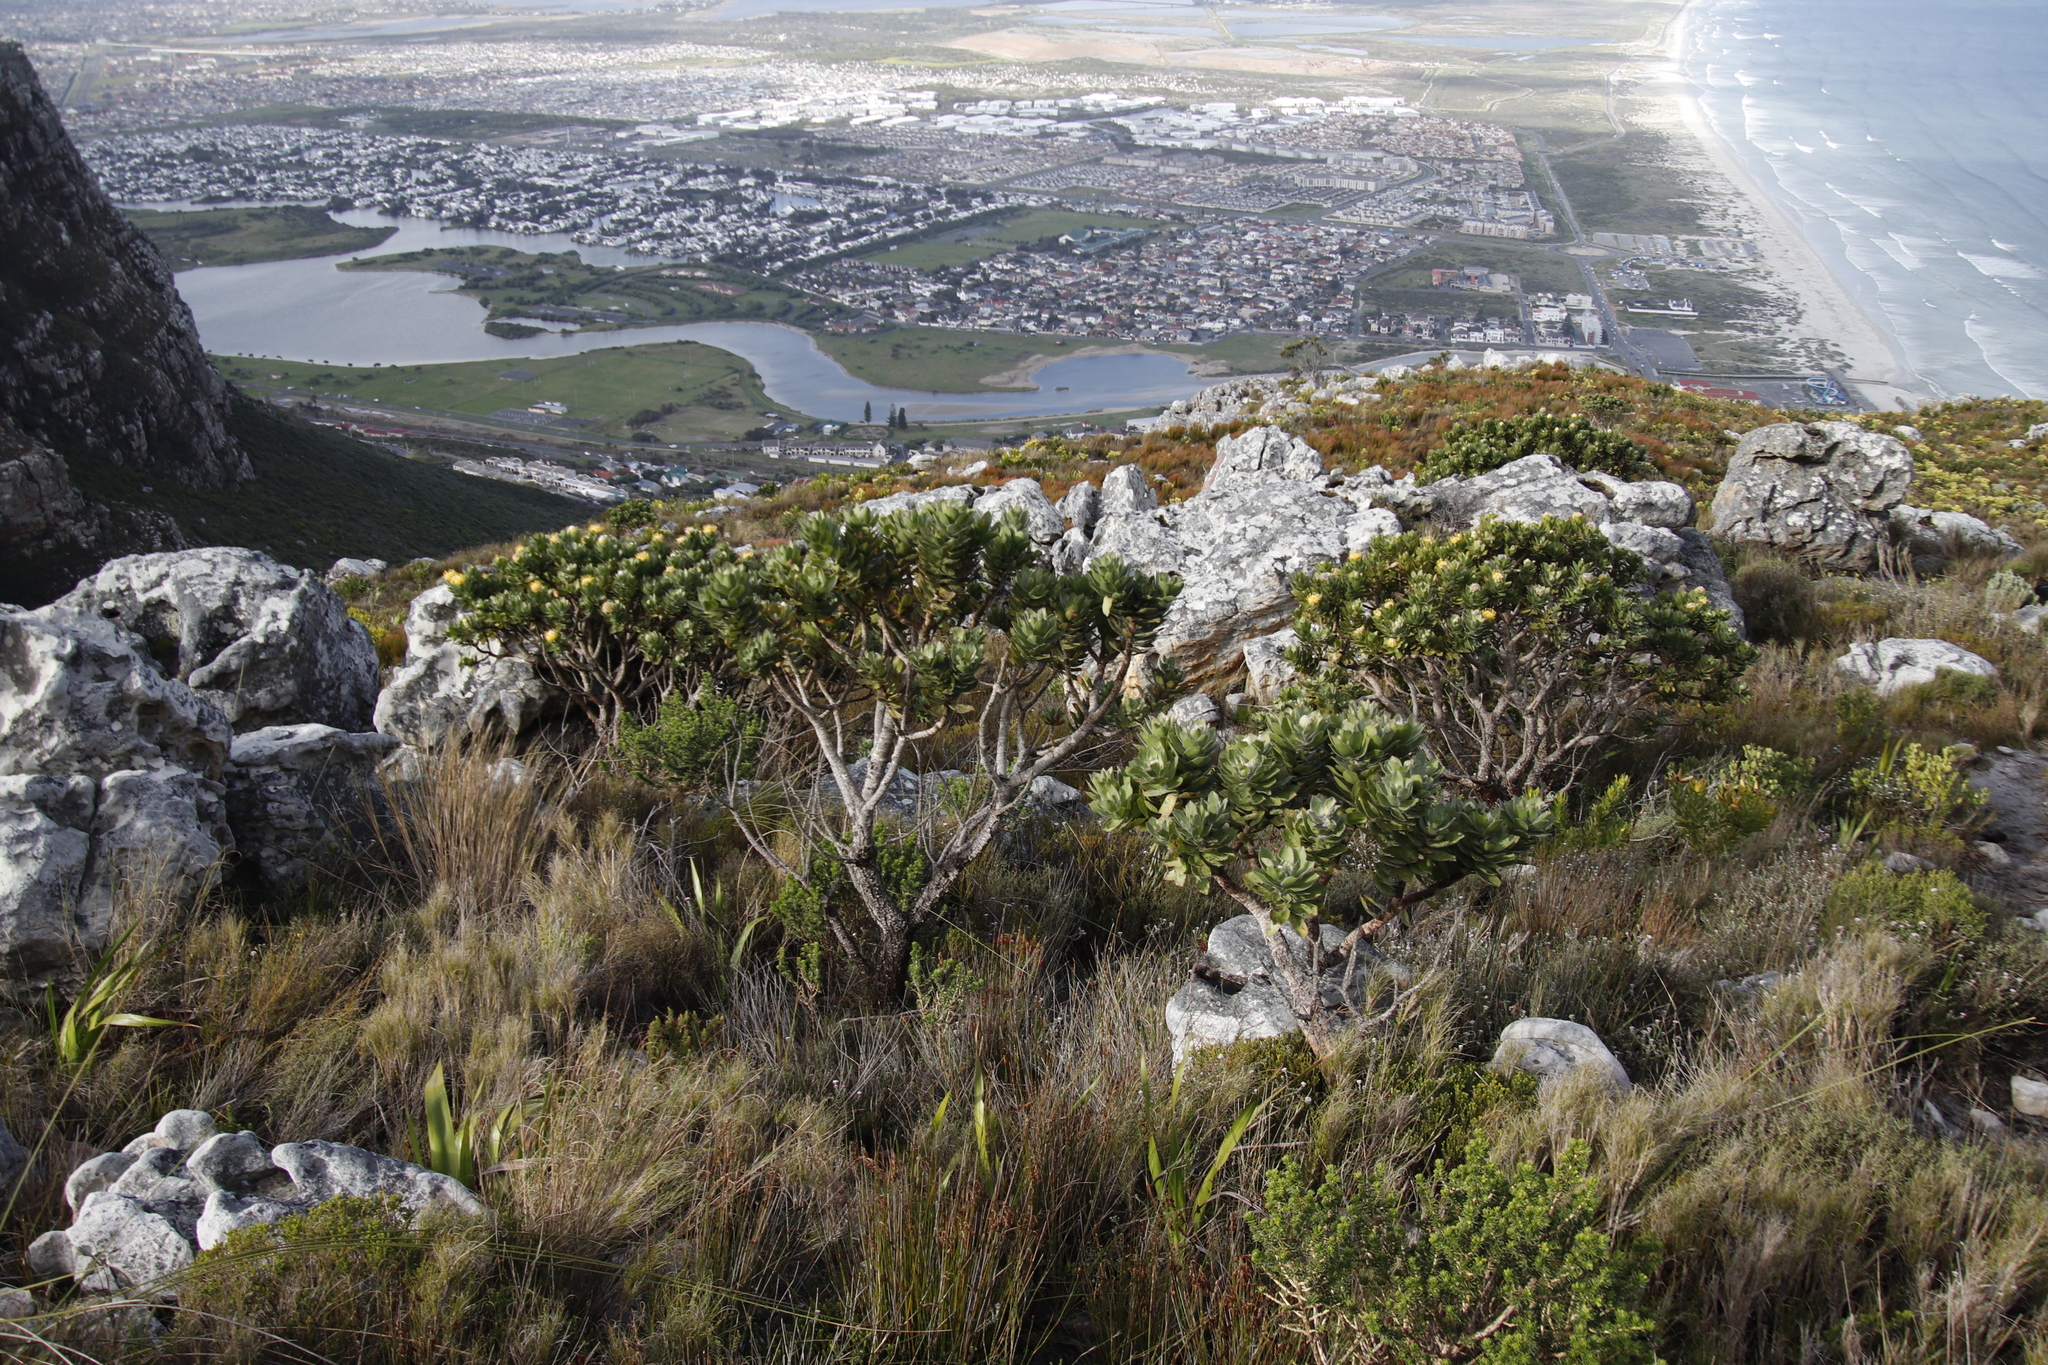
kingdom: Plantae
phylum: Tracheophyta
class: Magnoliopsida
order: Proteales
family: Proteaceae
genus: Leucospermum
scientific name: Leucospermum conocarpodendron
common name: Tree pincushion
